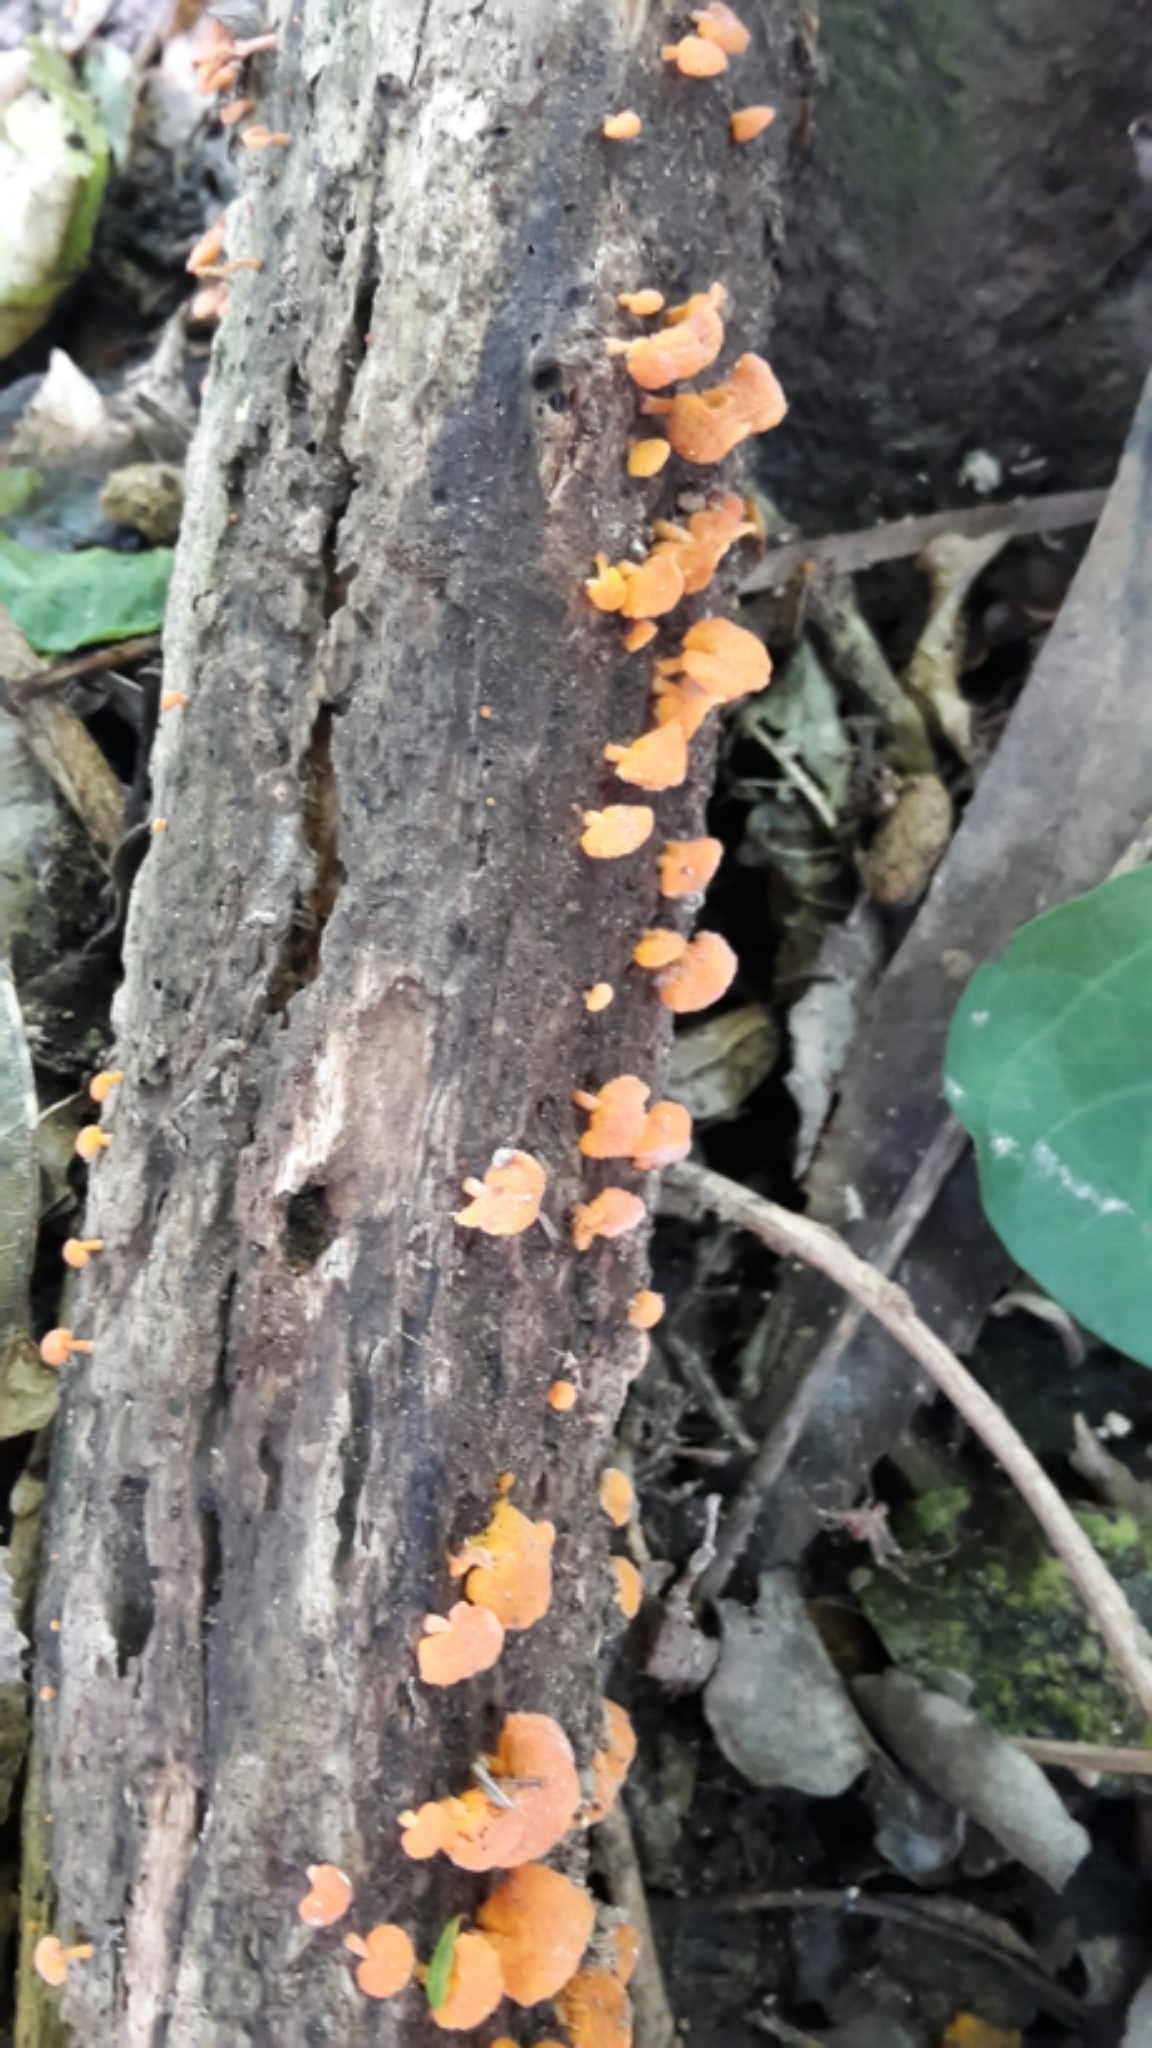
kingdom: Fungi
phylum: Basidiomycota
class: Agaricomycetes
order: Agaricales
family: Mycenaceae
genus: Favolaschia
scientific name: Favolaschia claudopus
